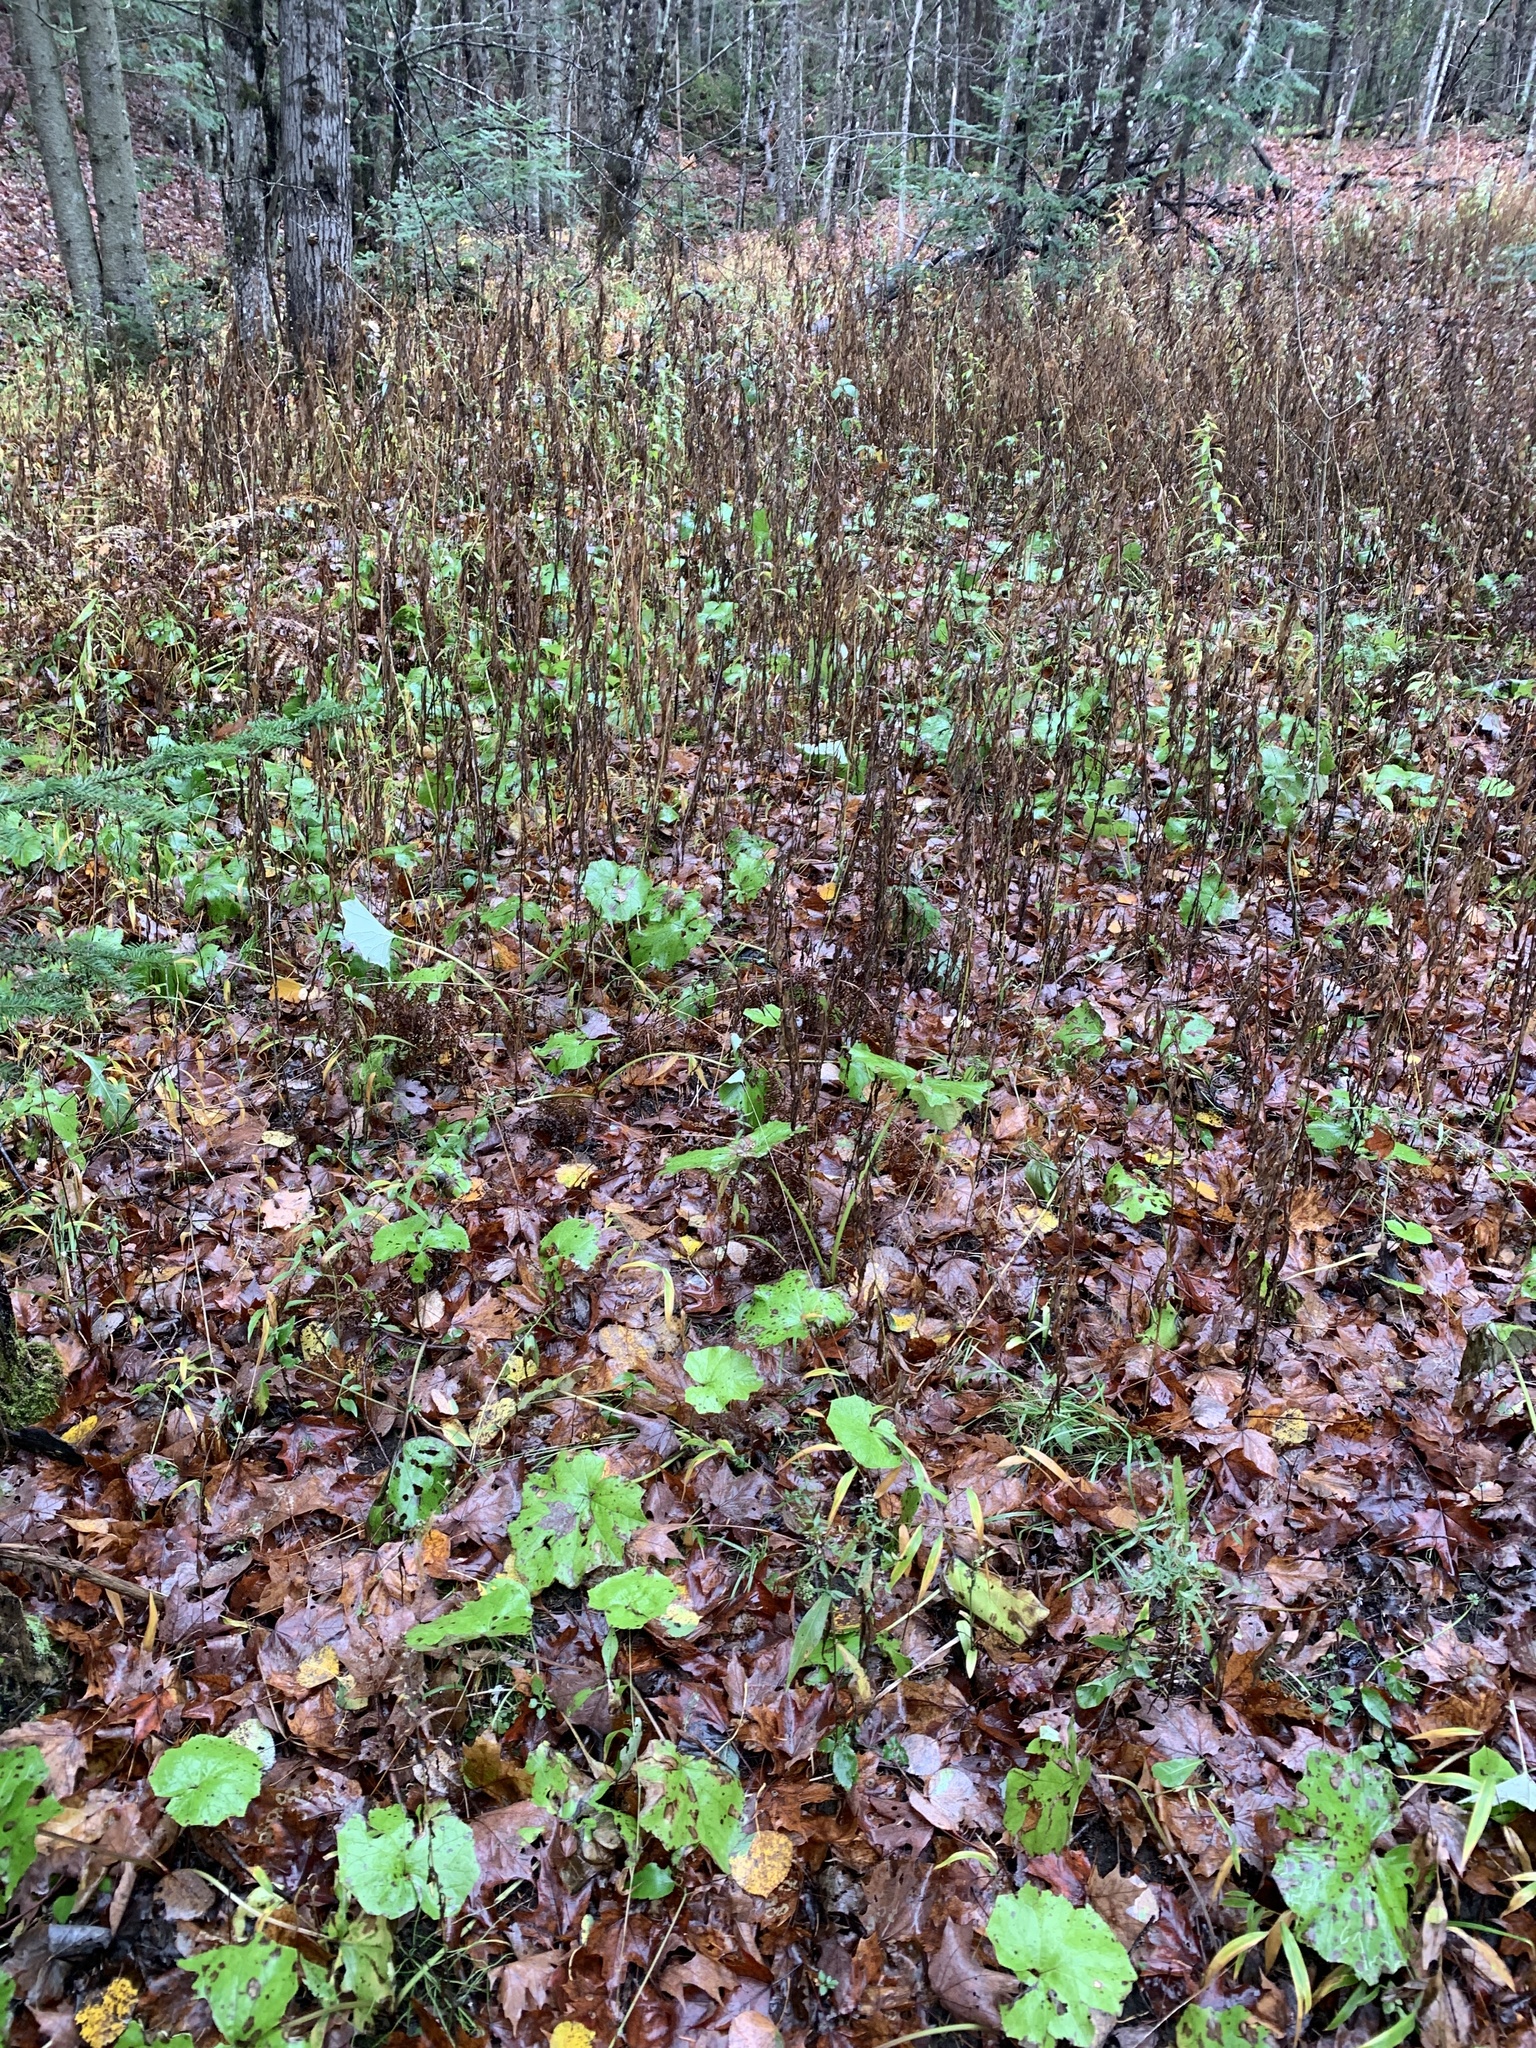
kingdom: Plantae
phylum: Tracheophyta
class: Magnoliopsida
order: Asterales
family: Asteraceae
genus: Tussilago
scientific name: Tussilago farfara
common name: Coltsfoot
